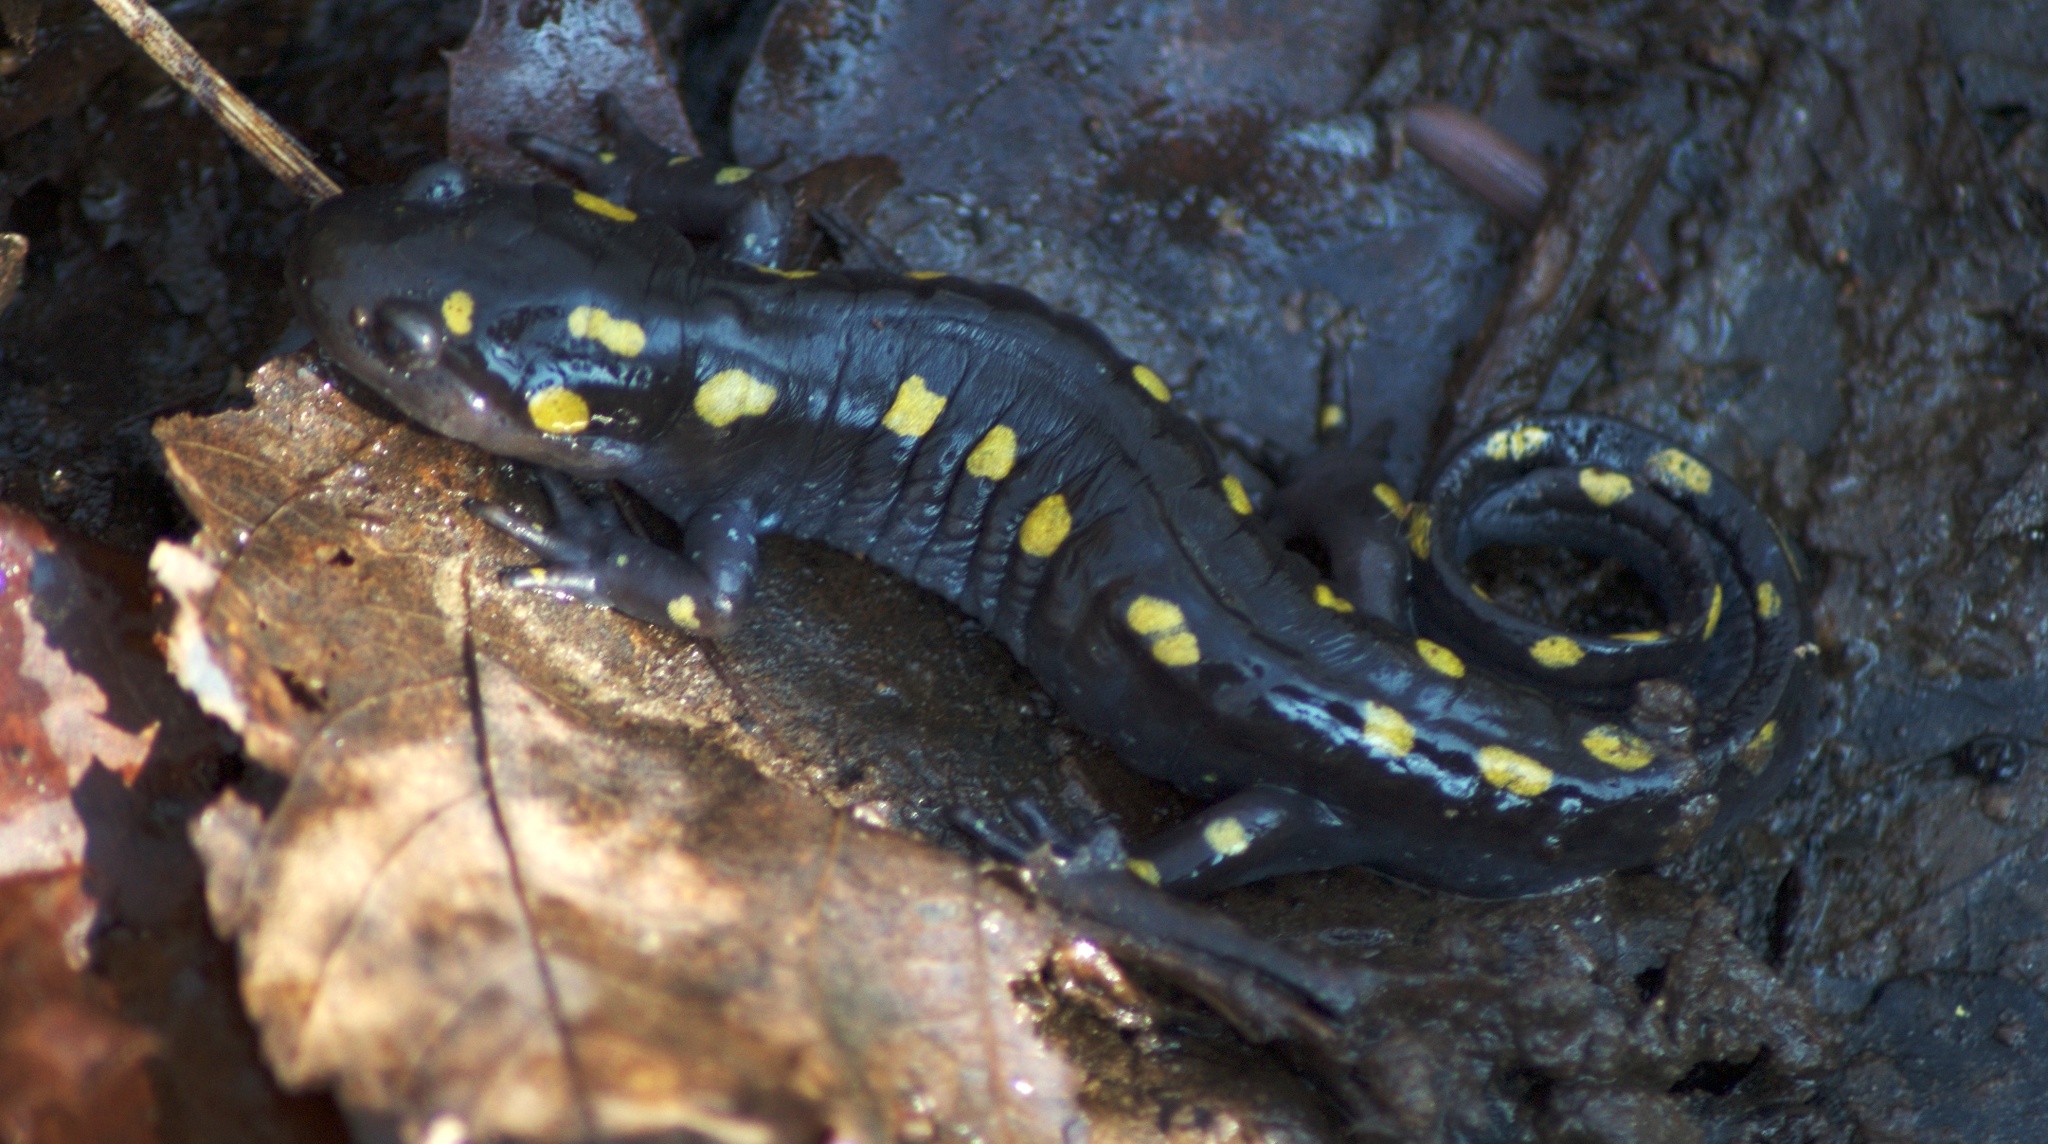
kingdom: Animalia
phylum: Chordata
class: Amphibia
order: Caudata
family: Ambystomatidae
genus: Ambystoma
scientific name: Ambystoma maculatum
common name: Spotted salamander
